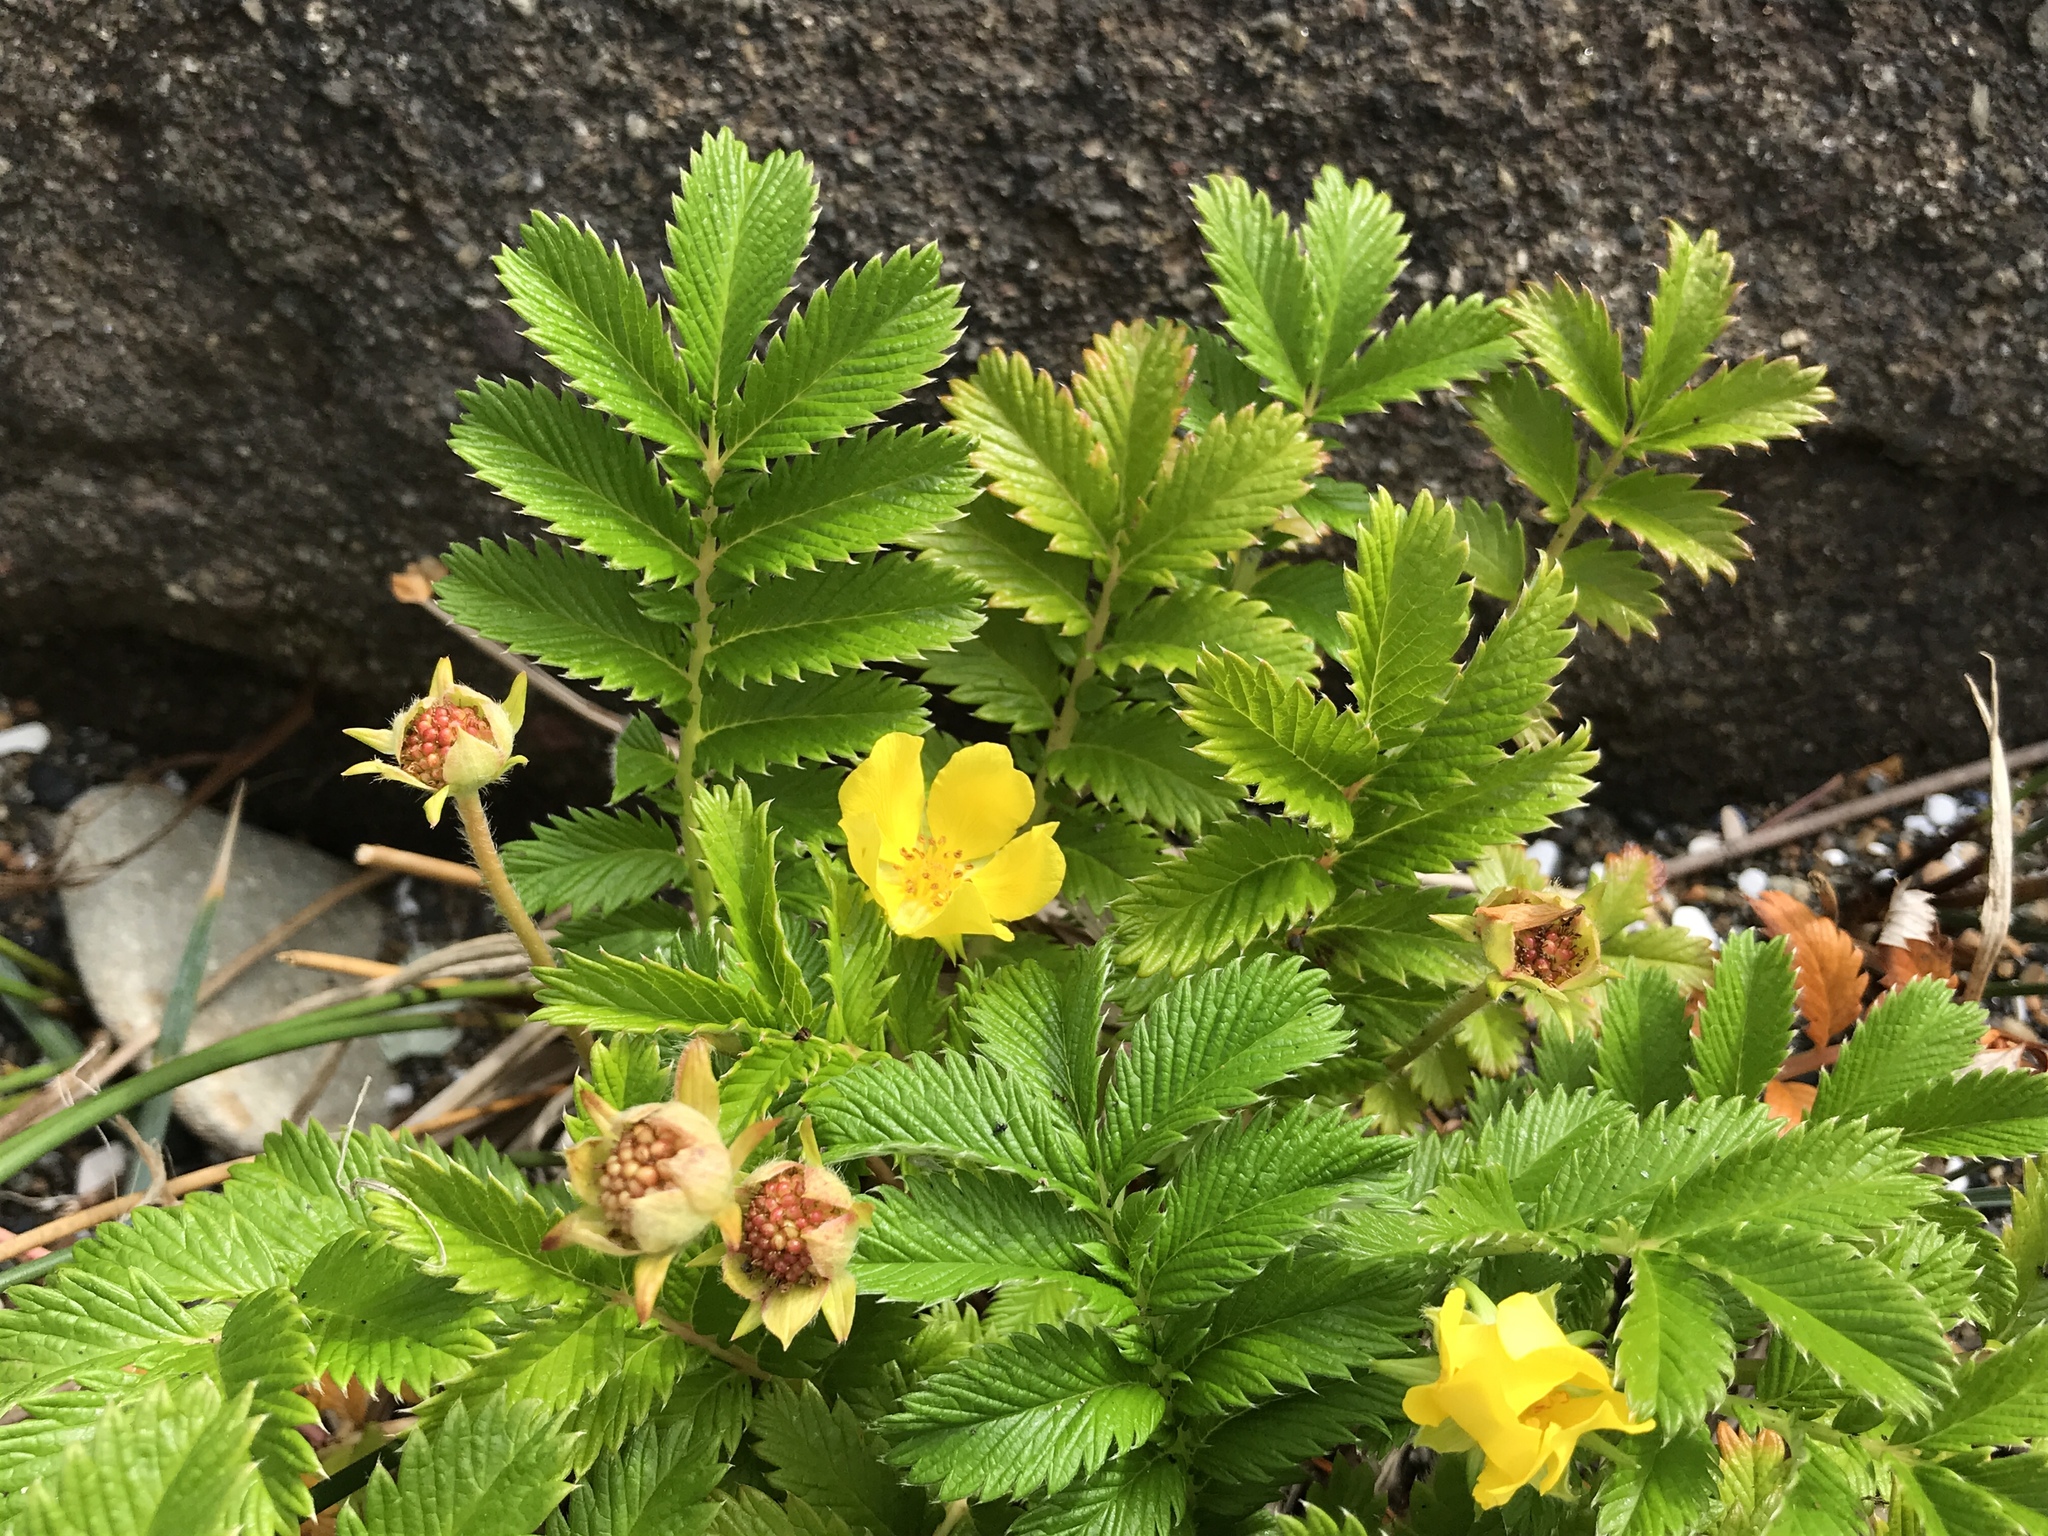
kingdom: Plantae
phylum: Tracheophyta
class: Magnoliopsida
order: Rosales
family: Rosaceae
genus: Argentina
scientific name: Argentina anserina
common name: Common silverweed
